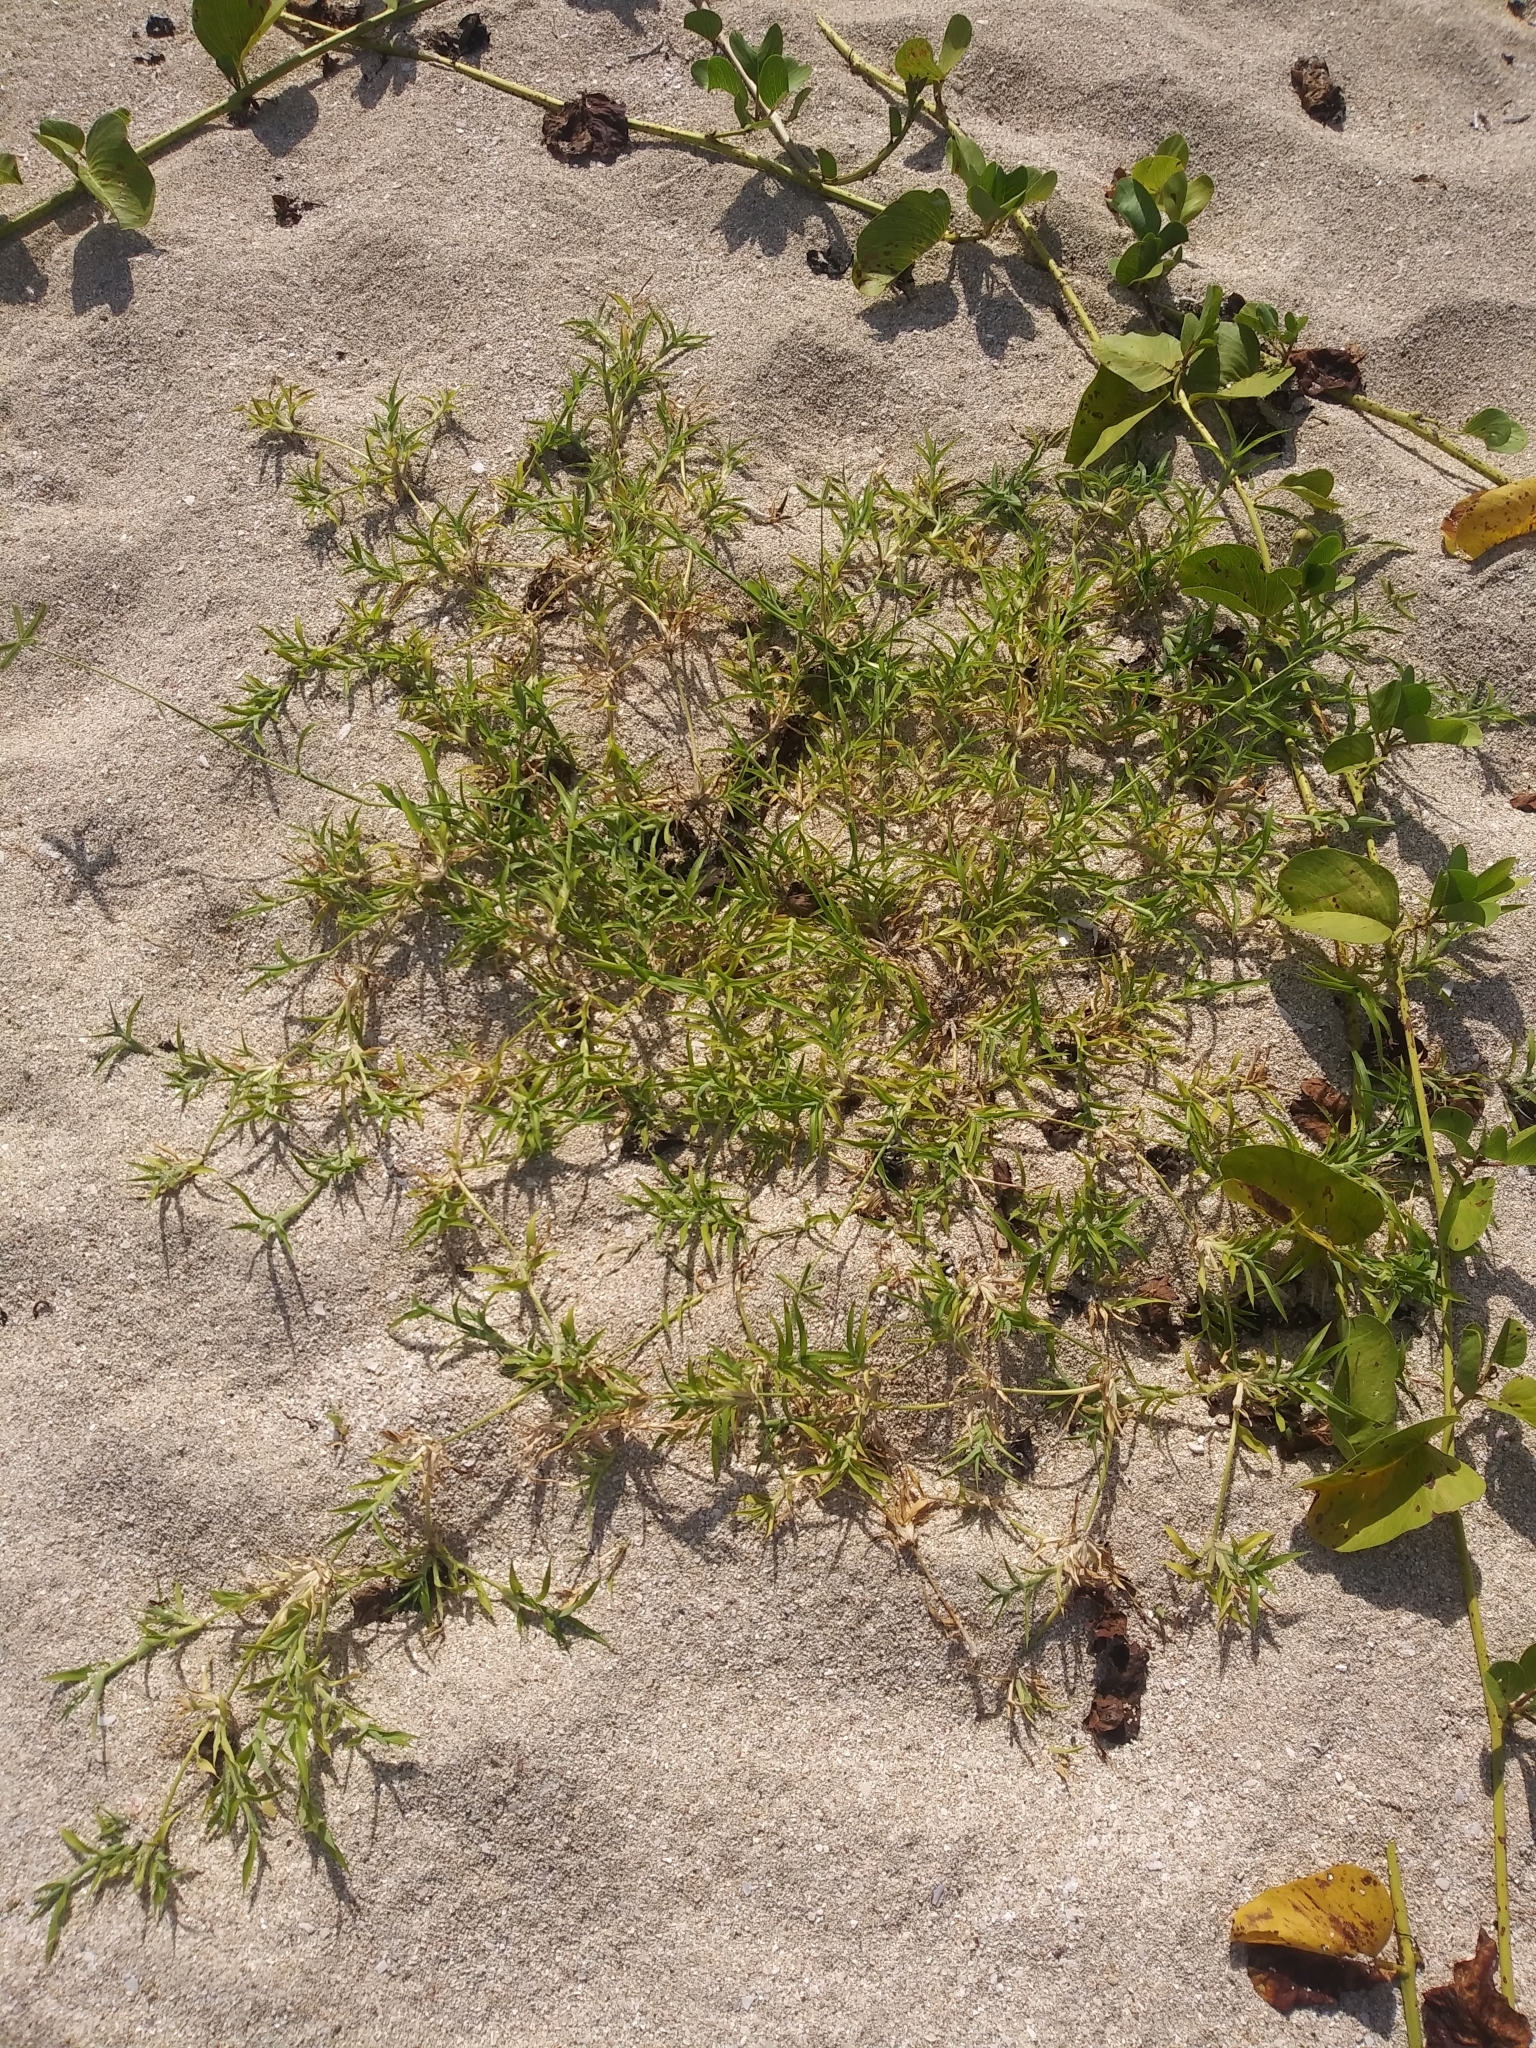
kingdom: Plantae
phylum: Tracheophyta
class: Liliopsida
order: Poales
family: Poaceae
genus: Dactyloctenium
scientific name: Dactyloctenium aegyptium
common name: Egyptian grass
